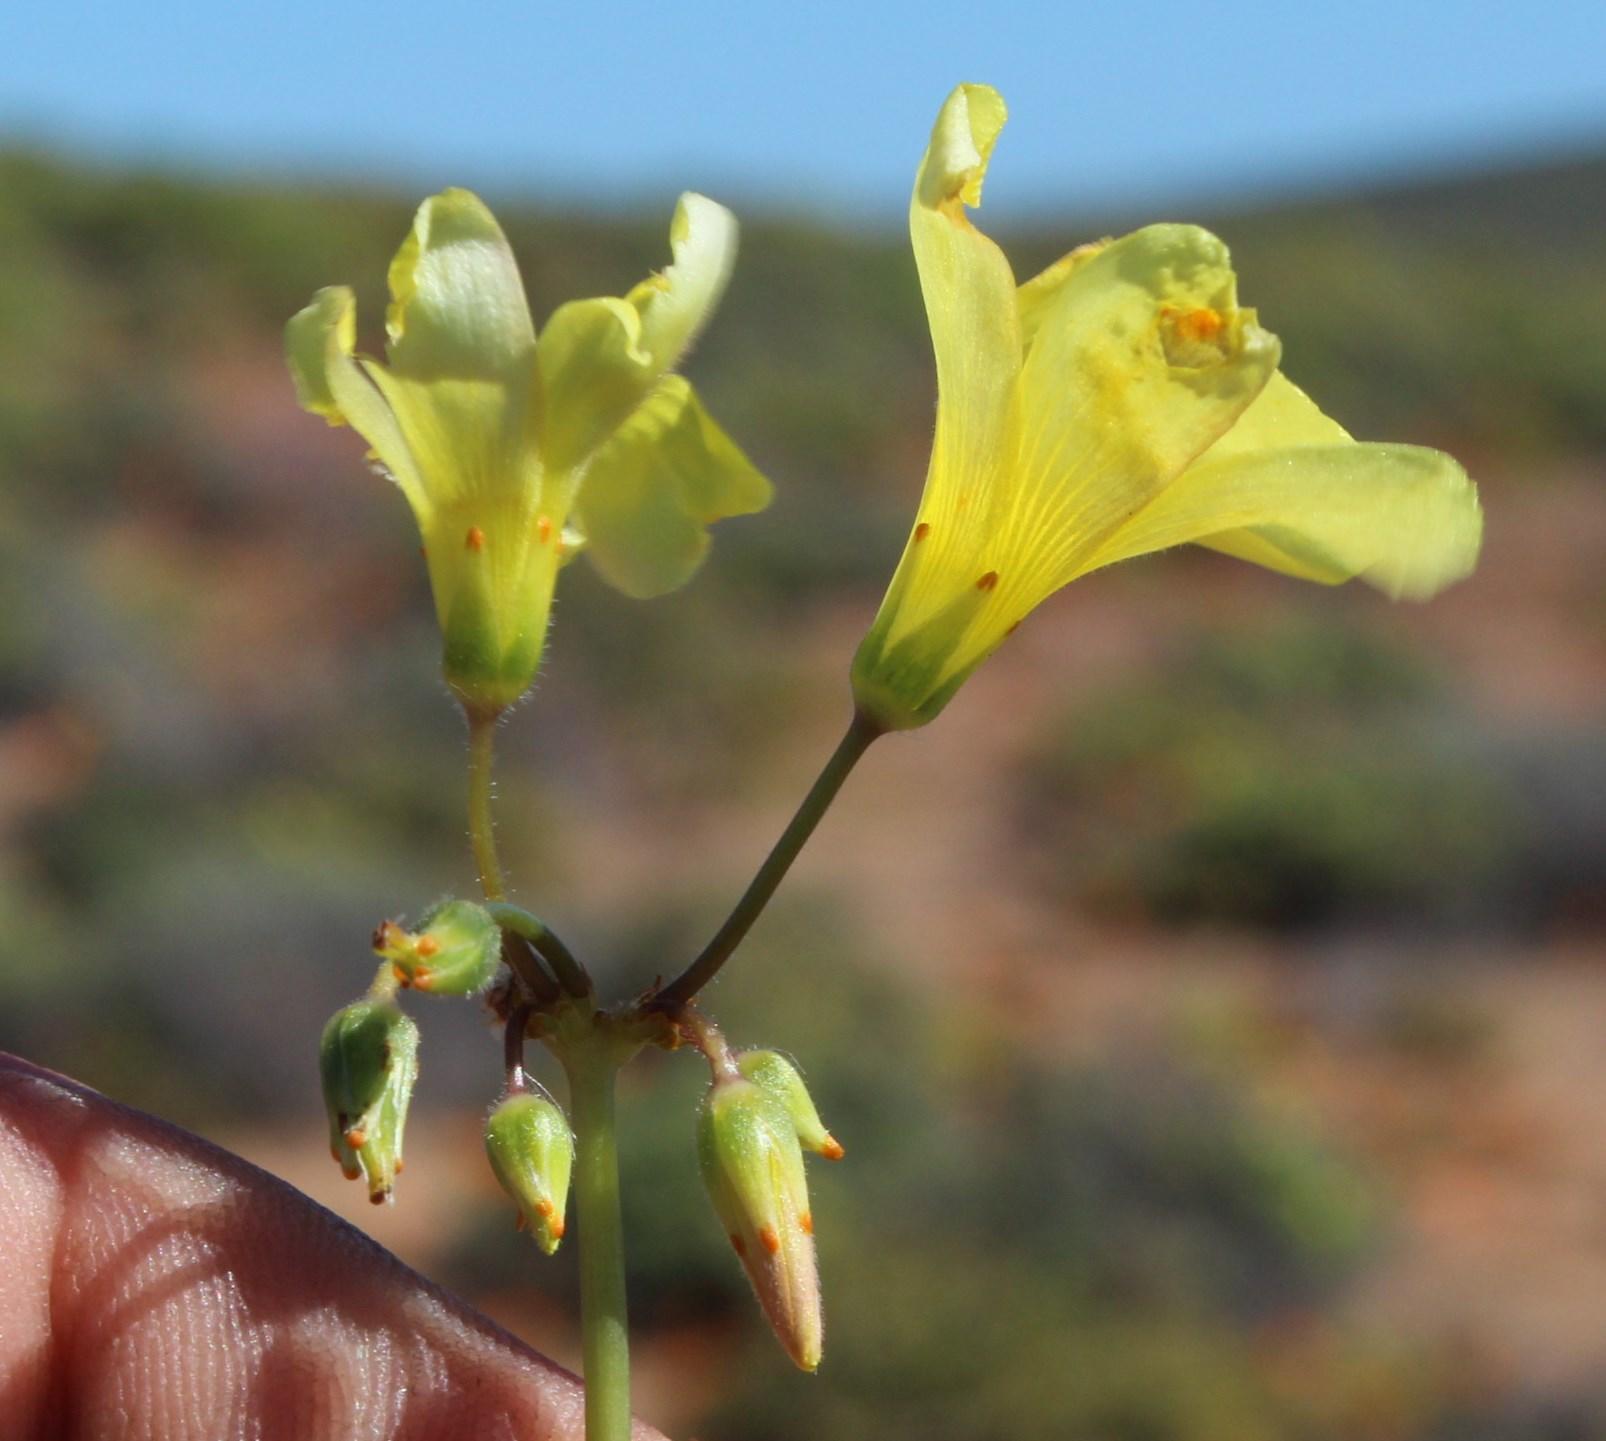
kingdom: Plantae
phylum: Tracheophyta
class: Magnoliopsida
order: Oxalidales
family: Oxalidaceae
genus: Oxalis
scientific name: Oxalis pes-caprae
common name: Bermuda-buttercup
